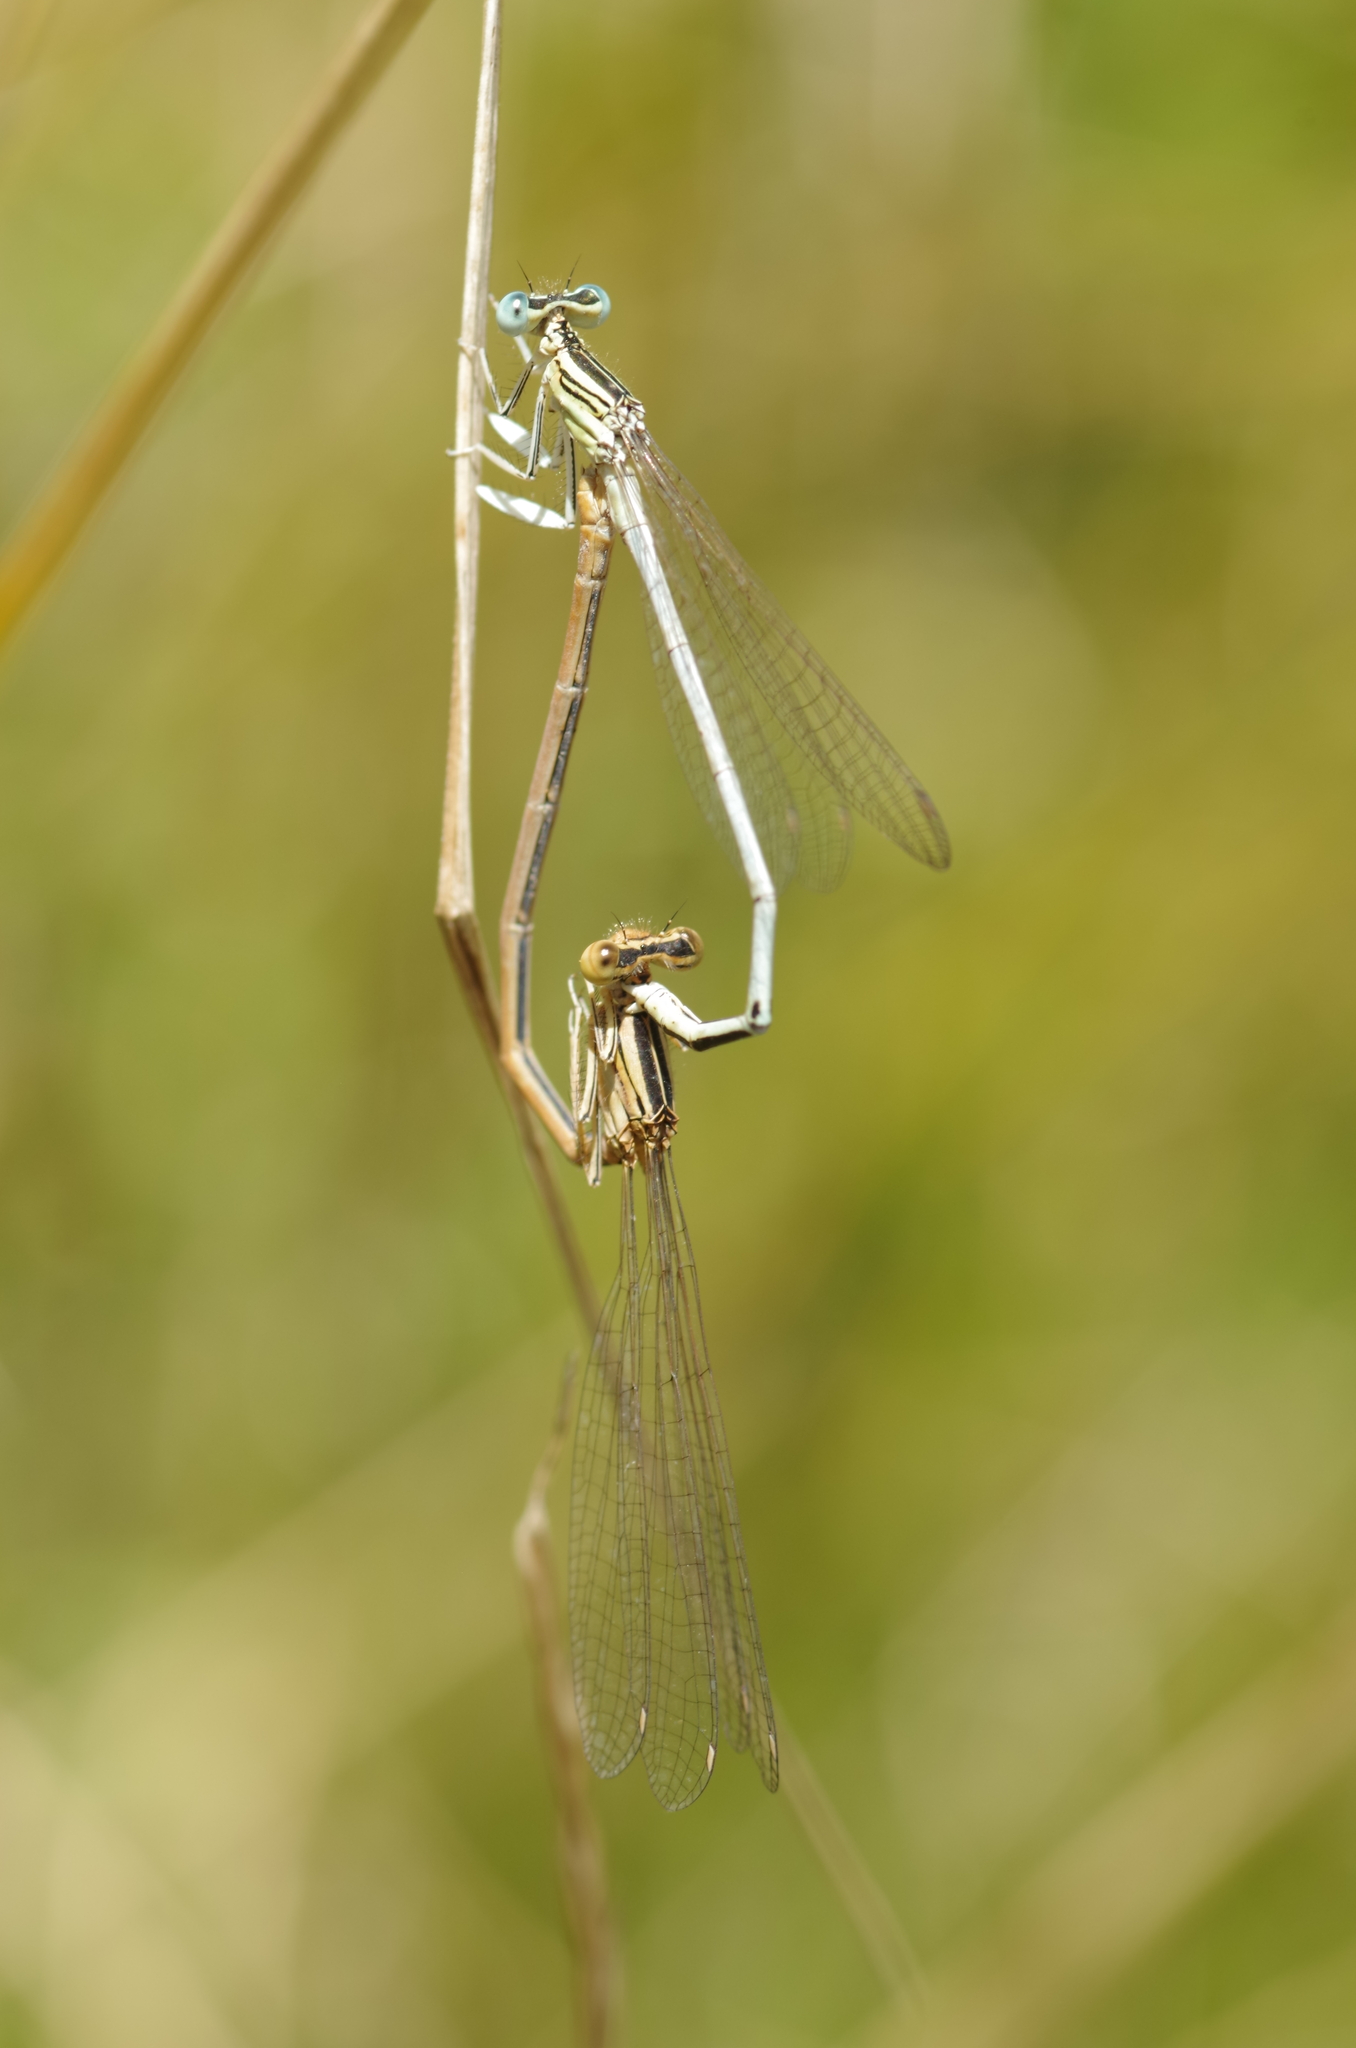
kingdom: Animalia
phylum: Arthropoda
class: Insecta
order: Odonata
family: Platycnemididae
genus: Platycnemis
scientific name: Platycnemis latipes
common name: White featherleg
